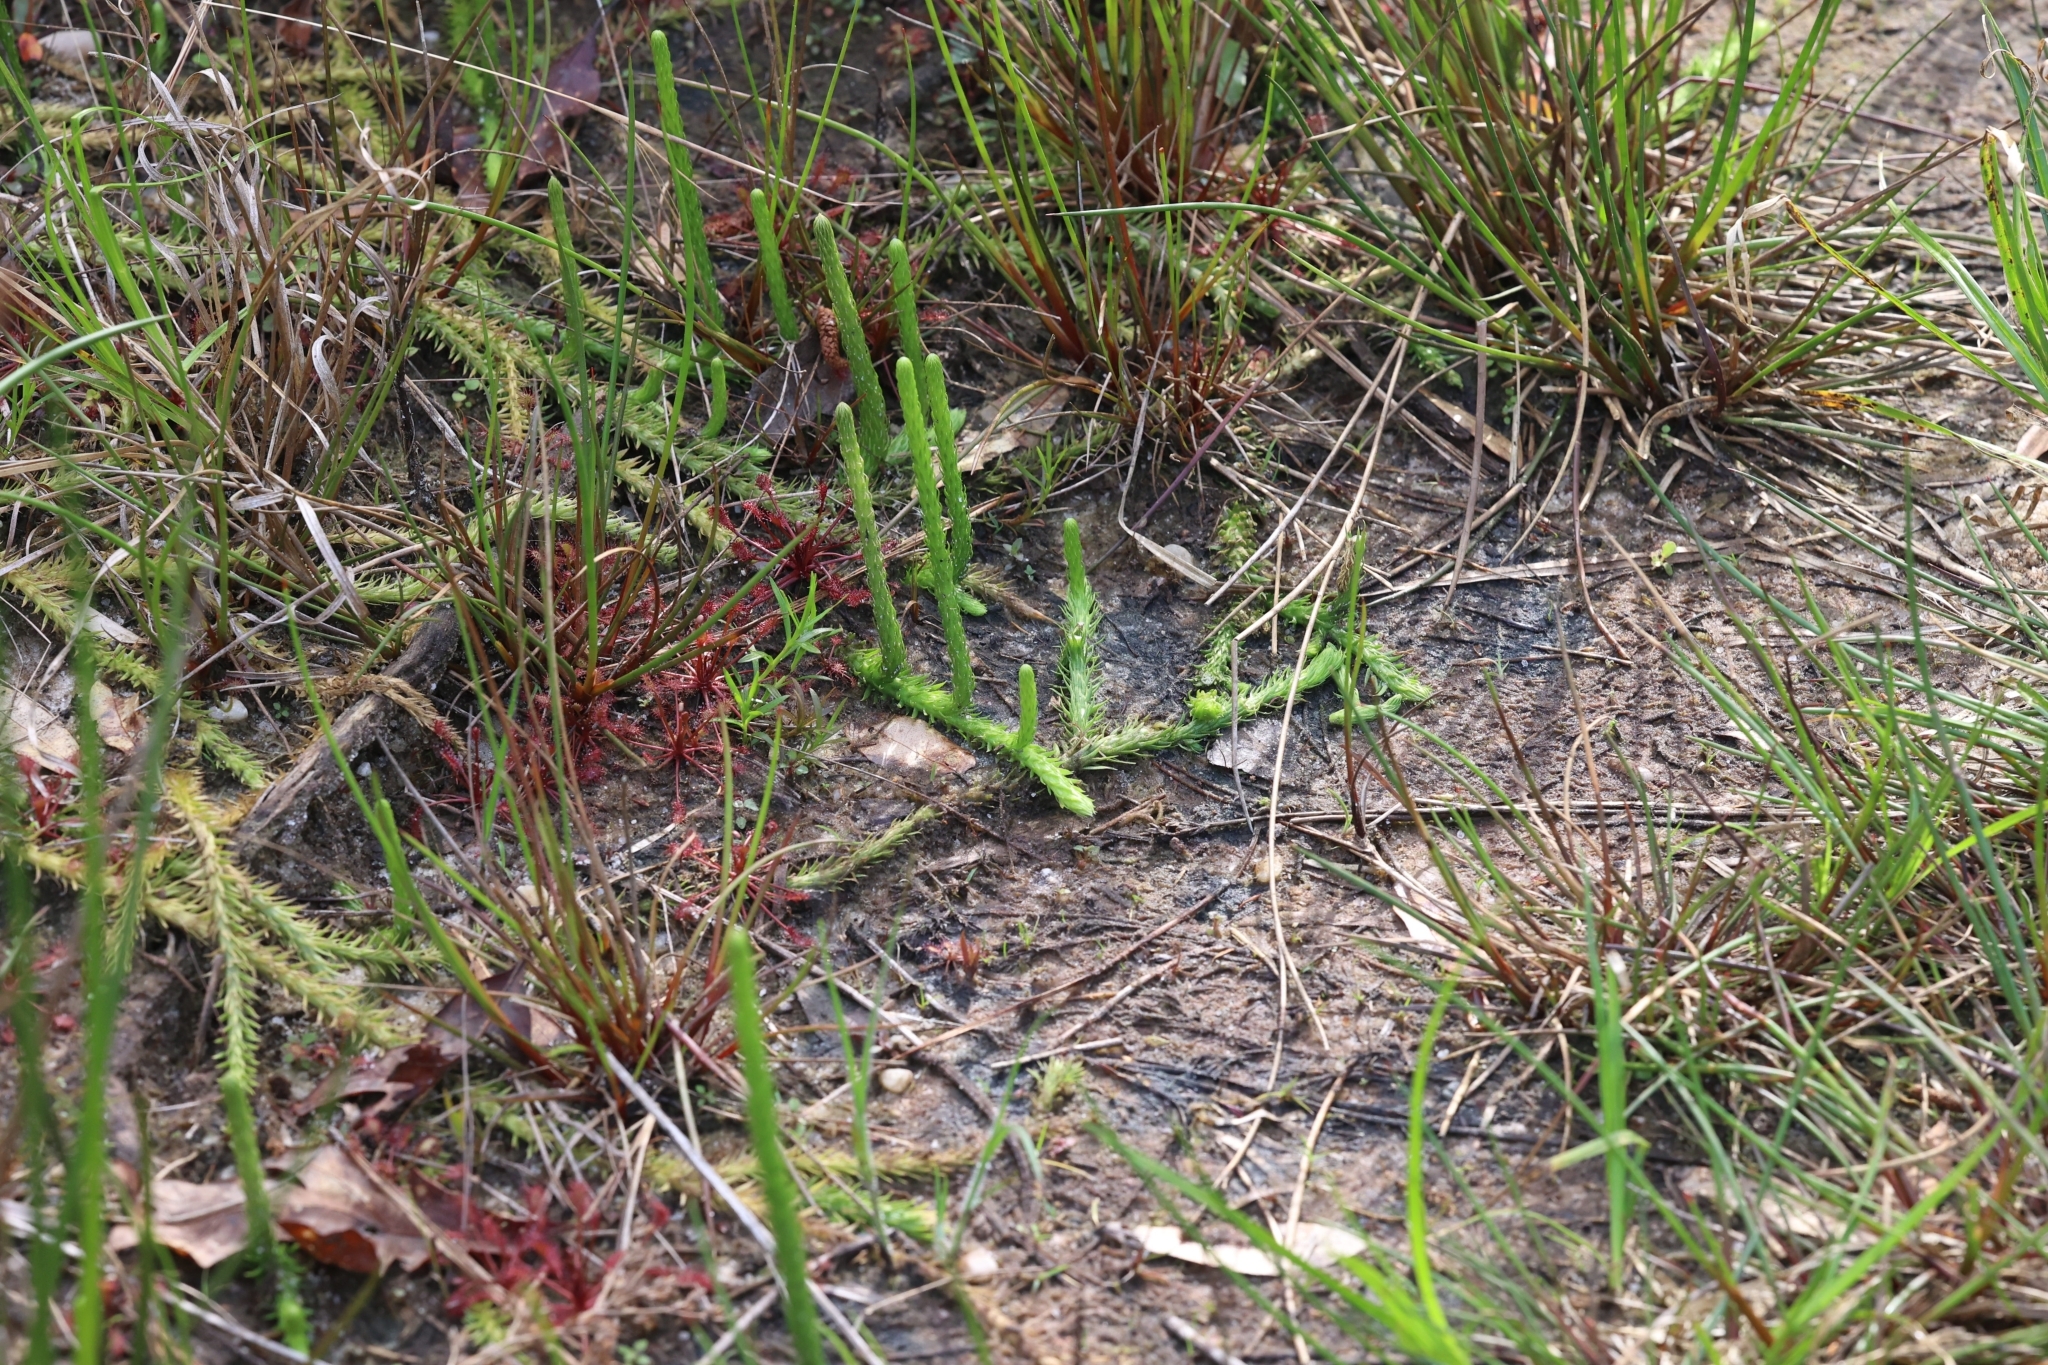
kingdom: Plantae
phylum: Tracheophyta
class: Lycopodiopsida
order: Lycopodiales
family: Lycopodiaceae
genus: Lycopodiella
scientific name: Lycopodiella appressa
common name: Appressed bog clubmoss
